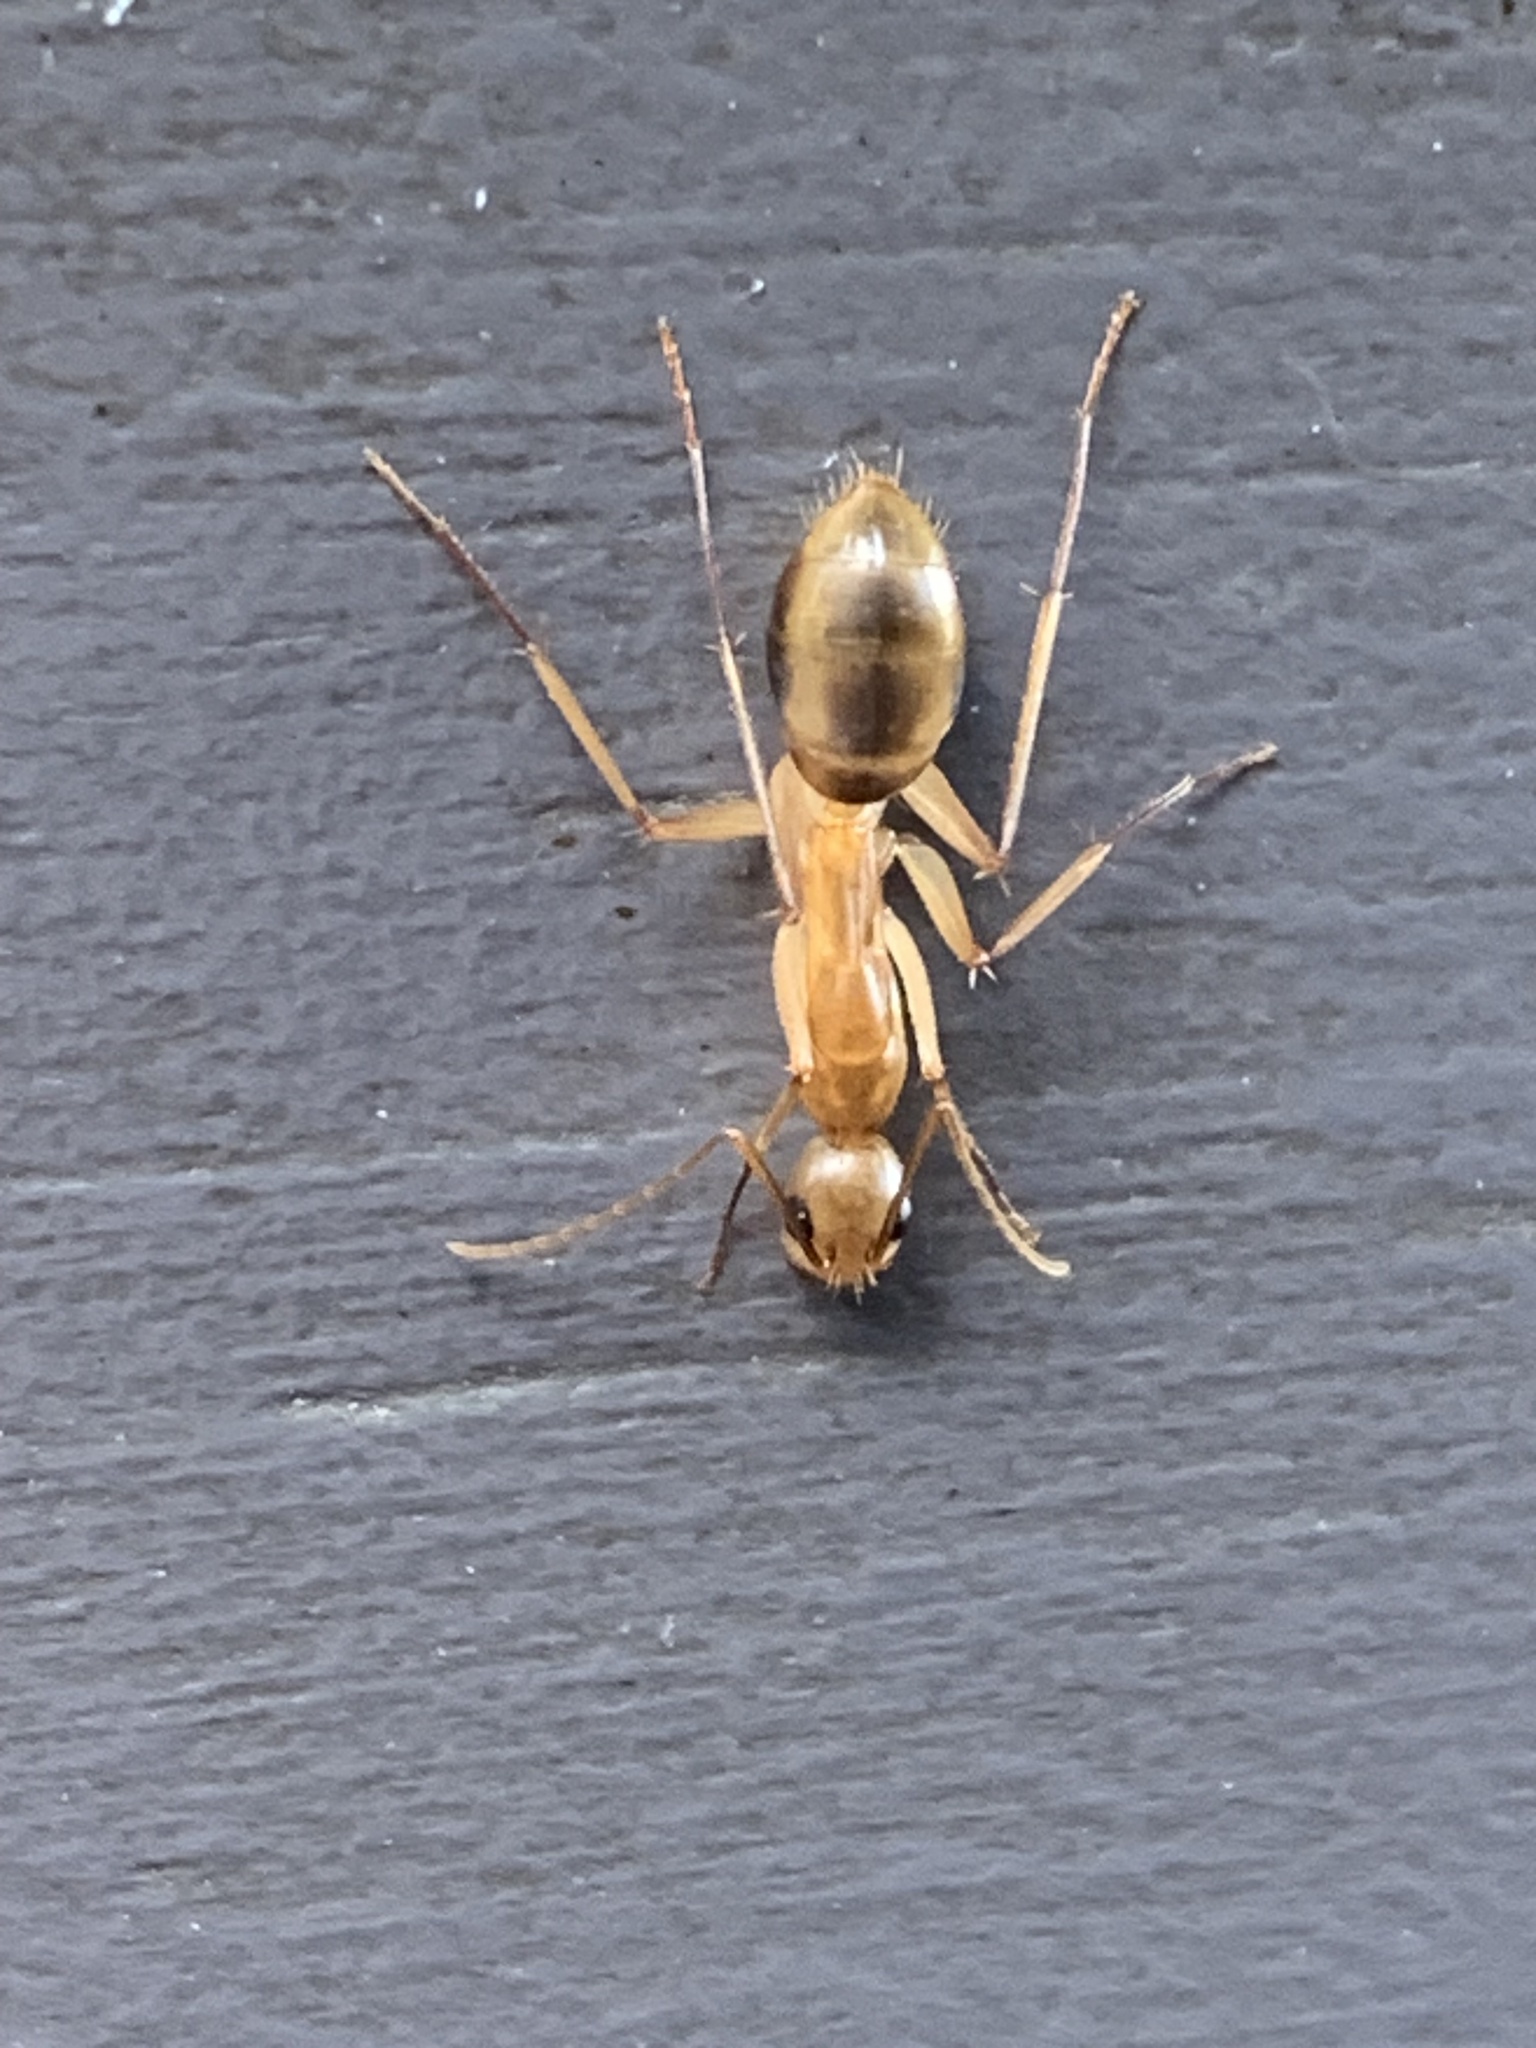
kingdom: Animalia
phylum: Arthropoda
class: Insecta
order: Hymenoptera
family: Formicidae
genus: Camponotus
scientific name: Camponotus maculatus
